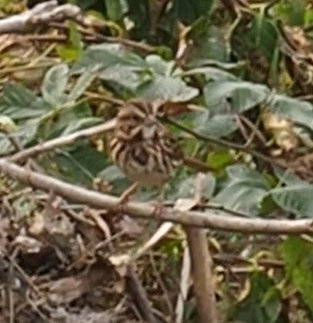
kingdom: Animalia
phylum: Chordata
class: Aves
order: Passeriformes
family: Passerellidae
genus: Melospiza
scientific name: Melospiza melodia
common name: Song sparrow
